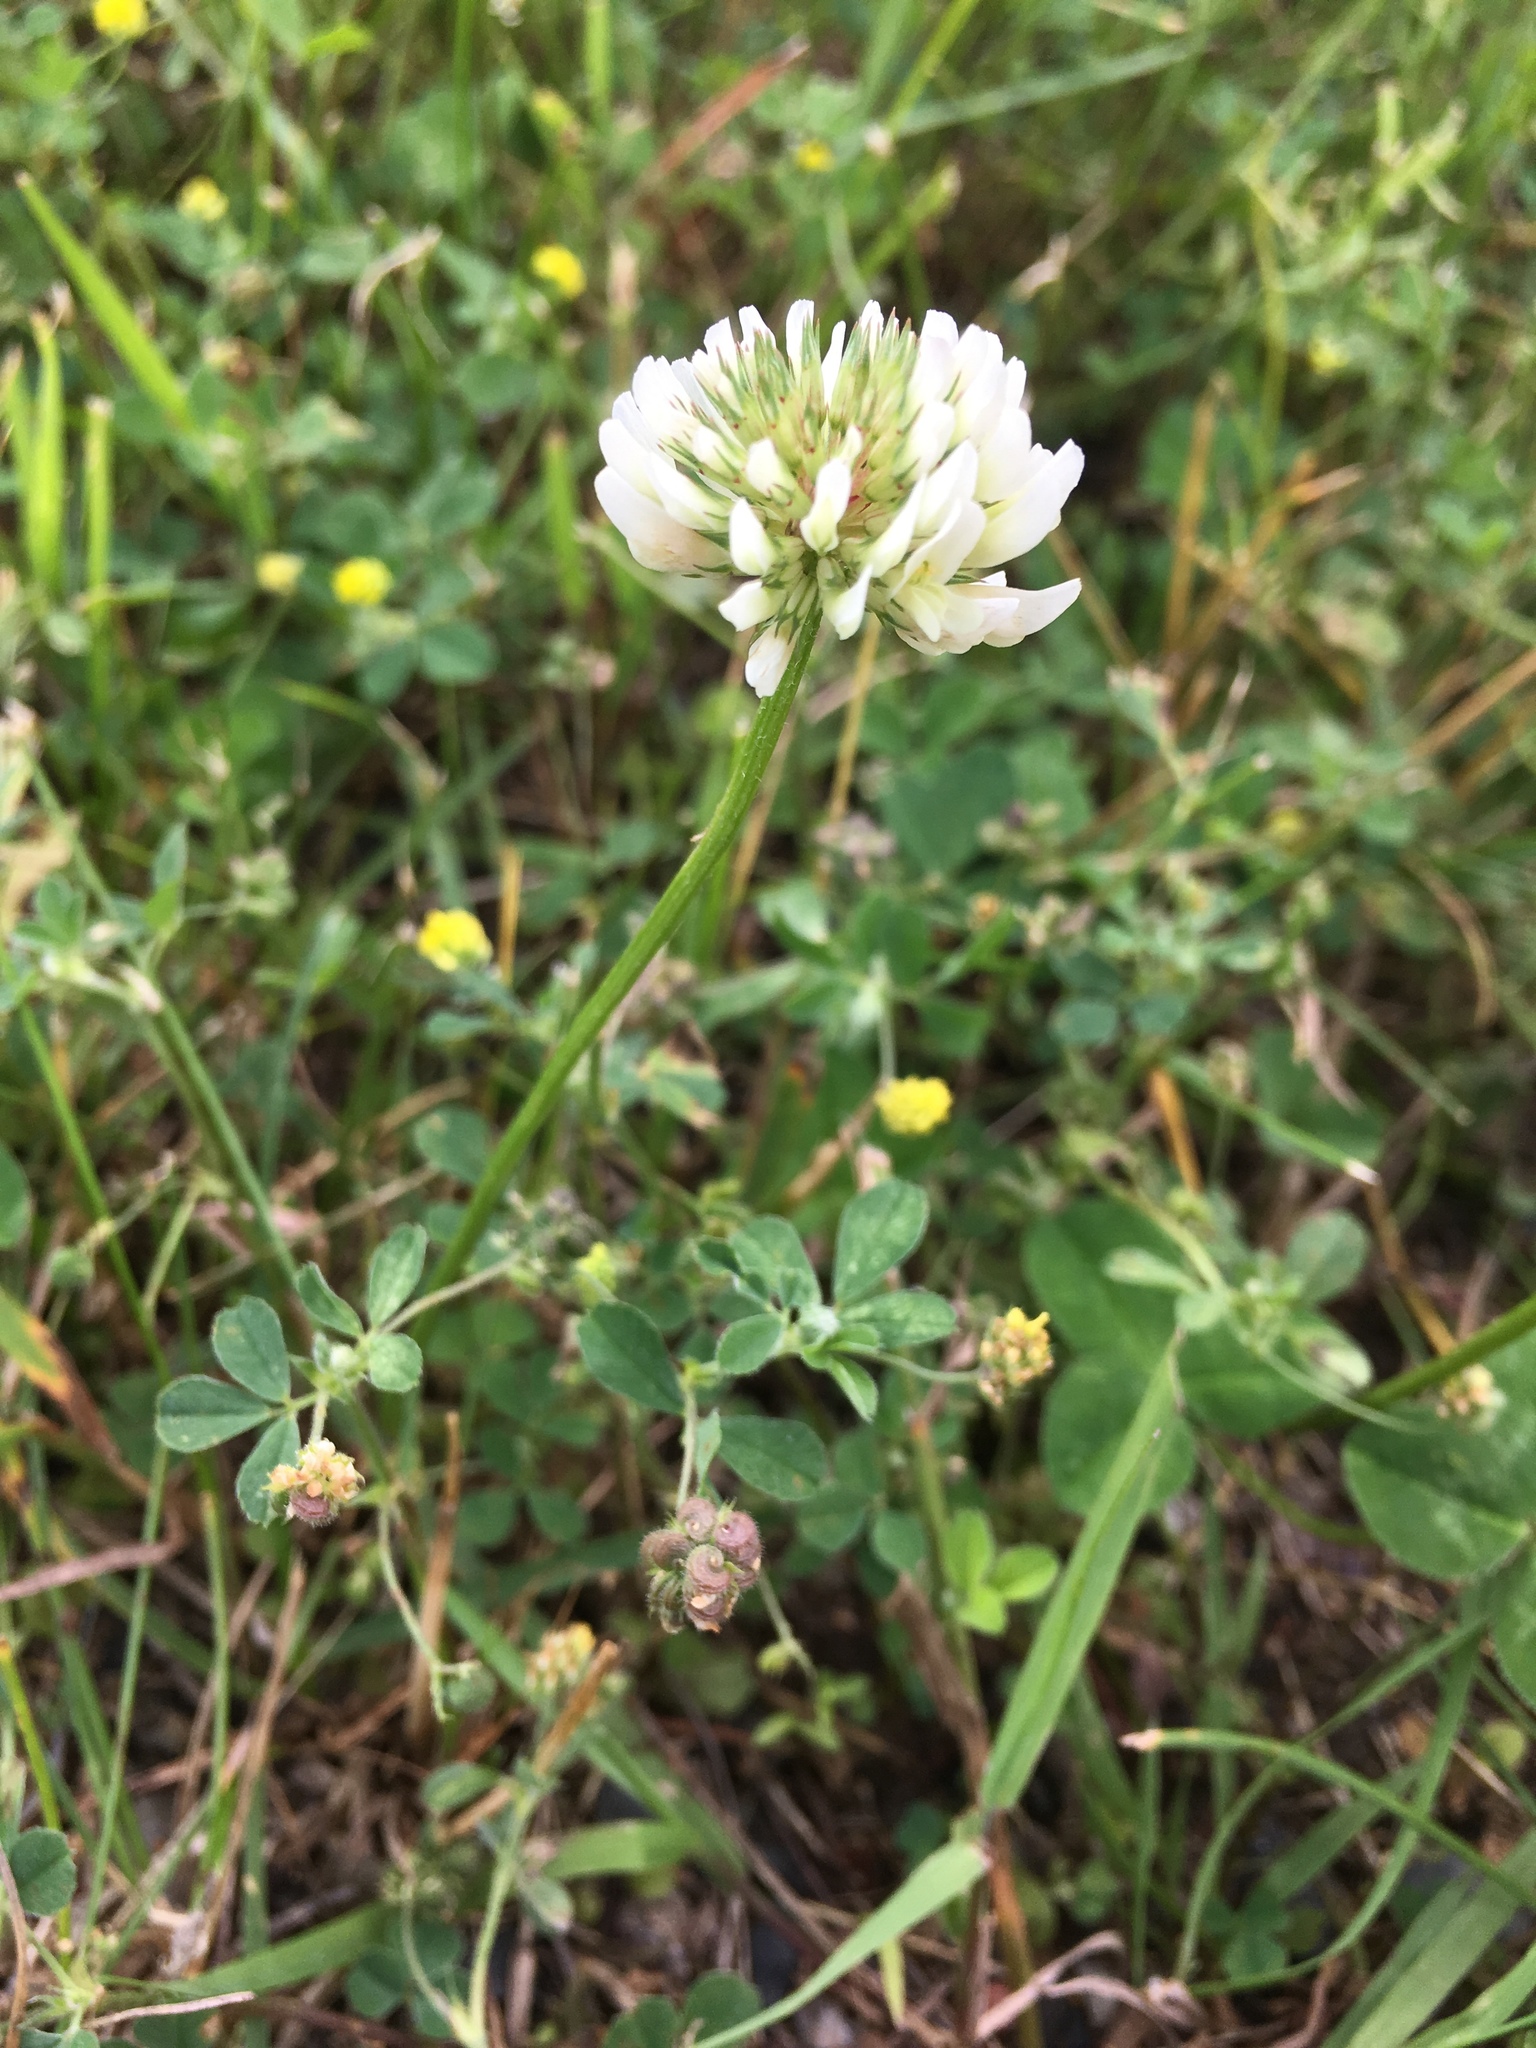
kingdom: Plantae
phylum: Tracheophyta
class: Magnoliopsida
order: Fabales
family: Fabaceae
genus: Trifolium
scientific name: Trifolium repens
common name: White clover
